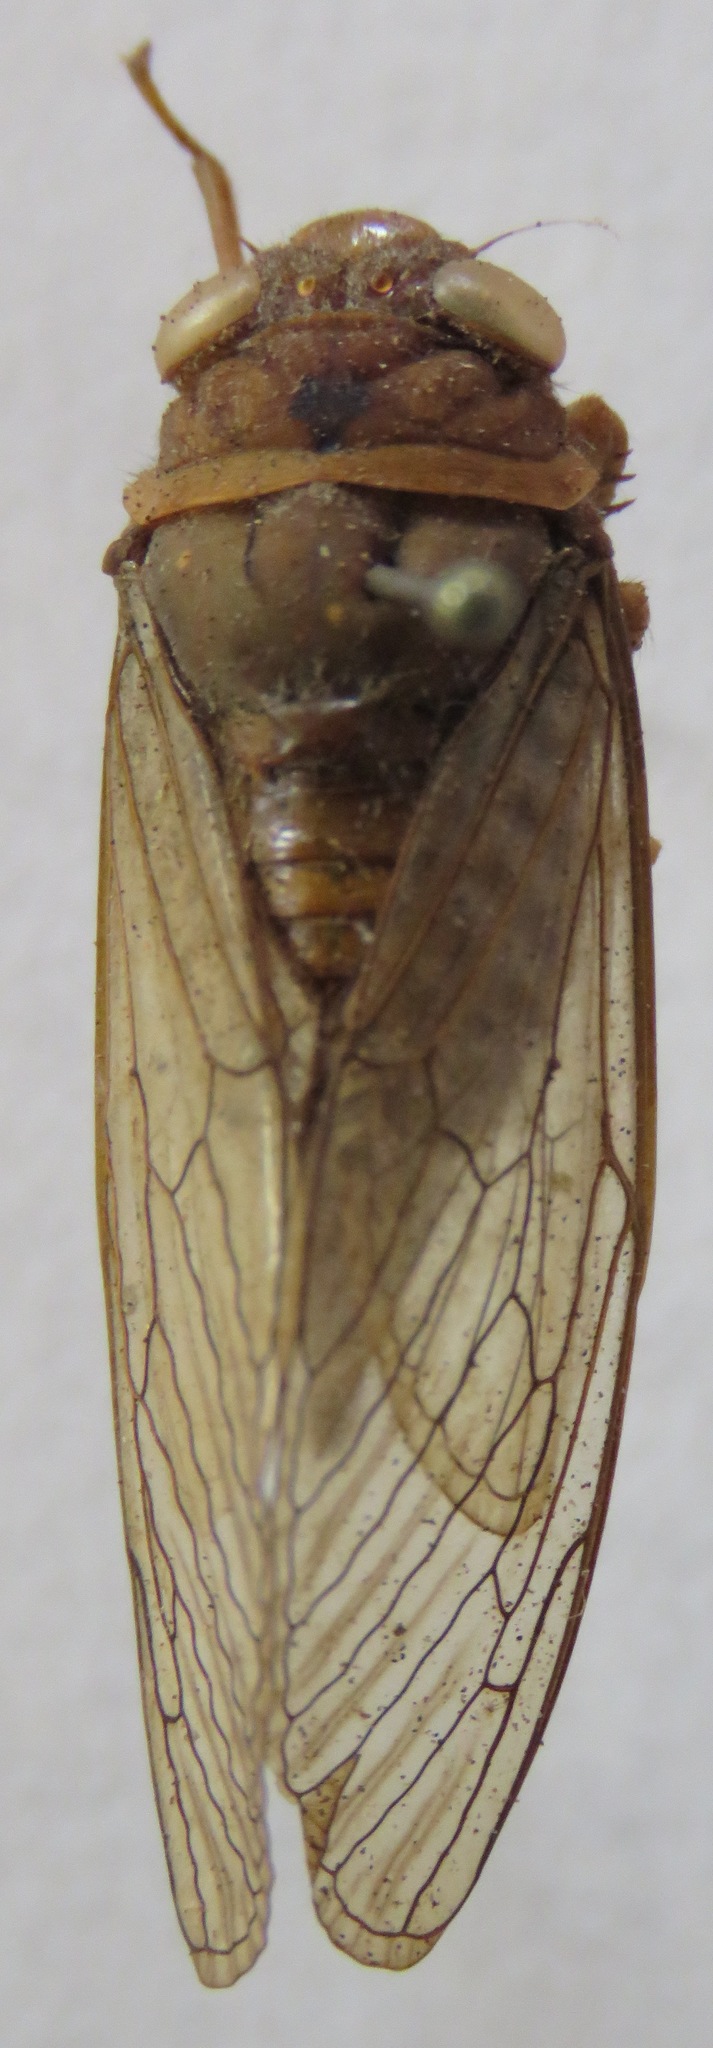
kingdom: Animalia
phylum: Arthropoda
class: Insecta
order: Hemiptera
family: Cicadidae
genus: Carineta
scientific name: Carineta cinara
